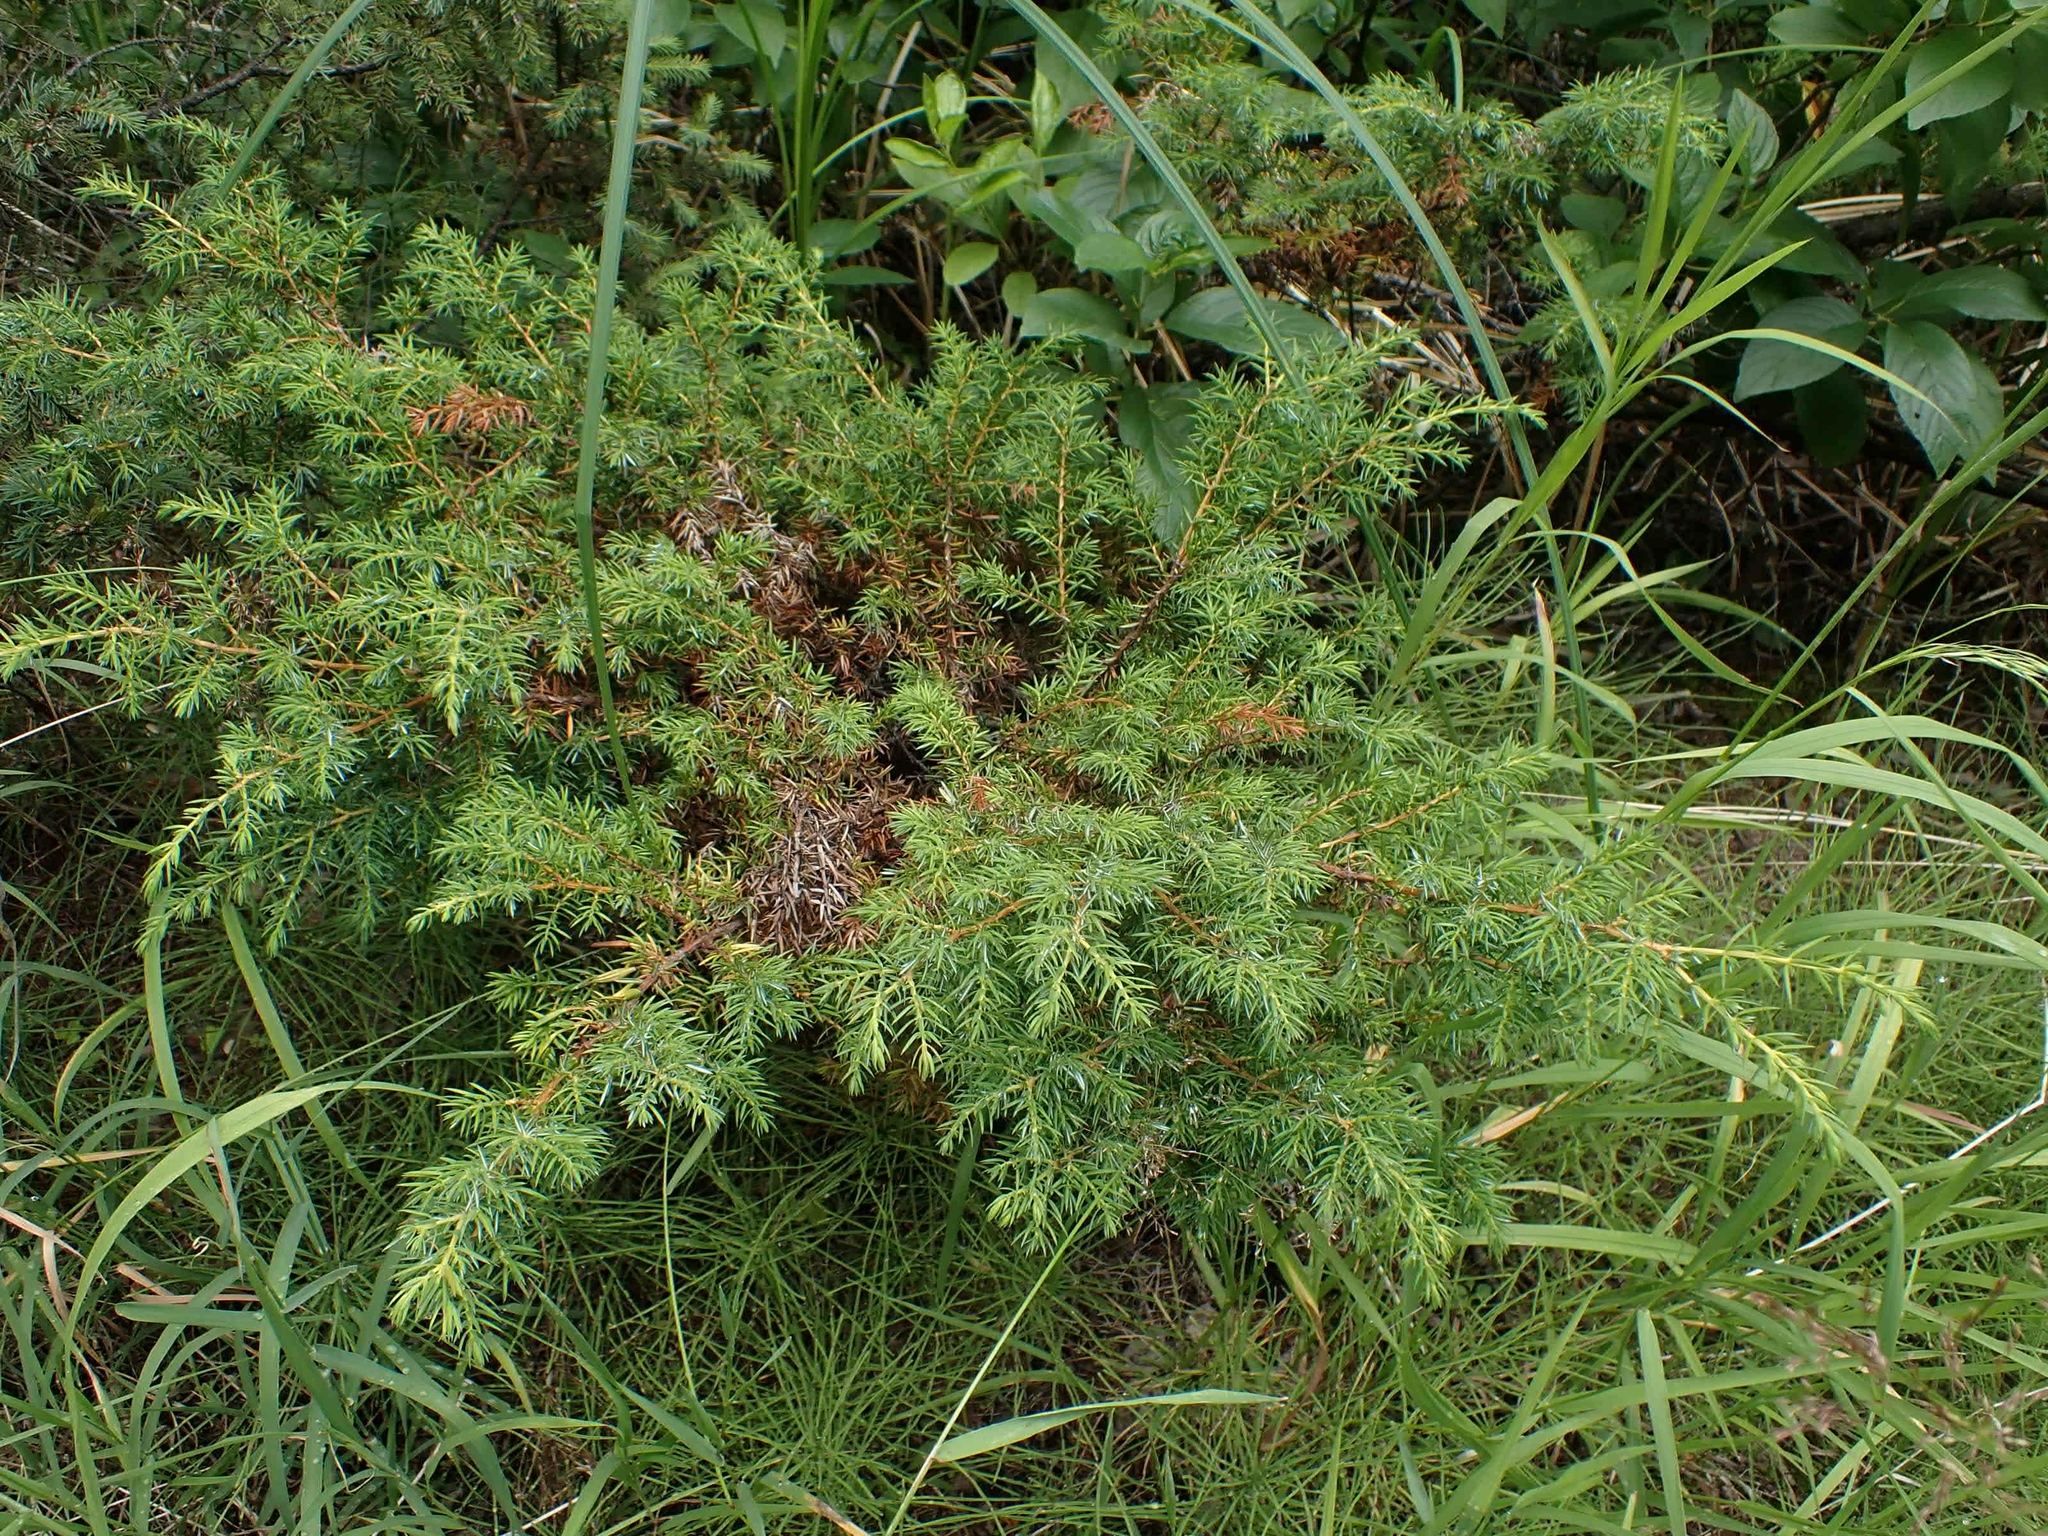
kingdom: Plantae
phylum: Tracheophyta
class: Pinopsida
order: Pinales
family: Cupressaceae
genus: Juniperus
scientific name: Juniperus communis
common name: Common juniper
